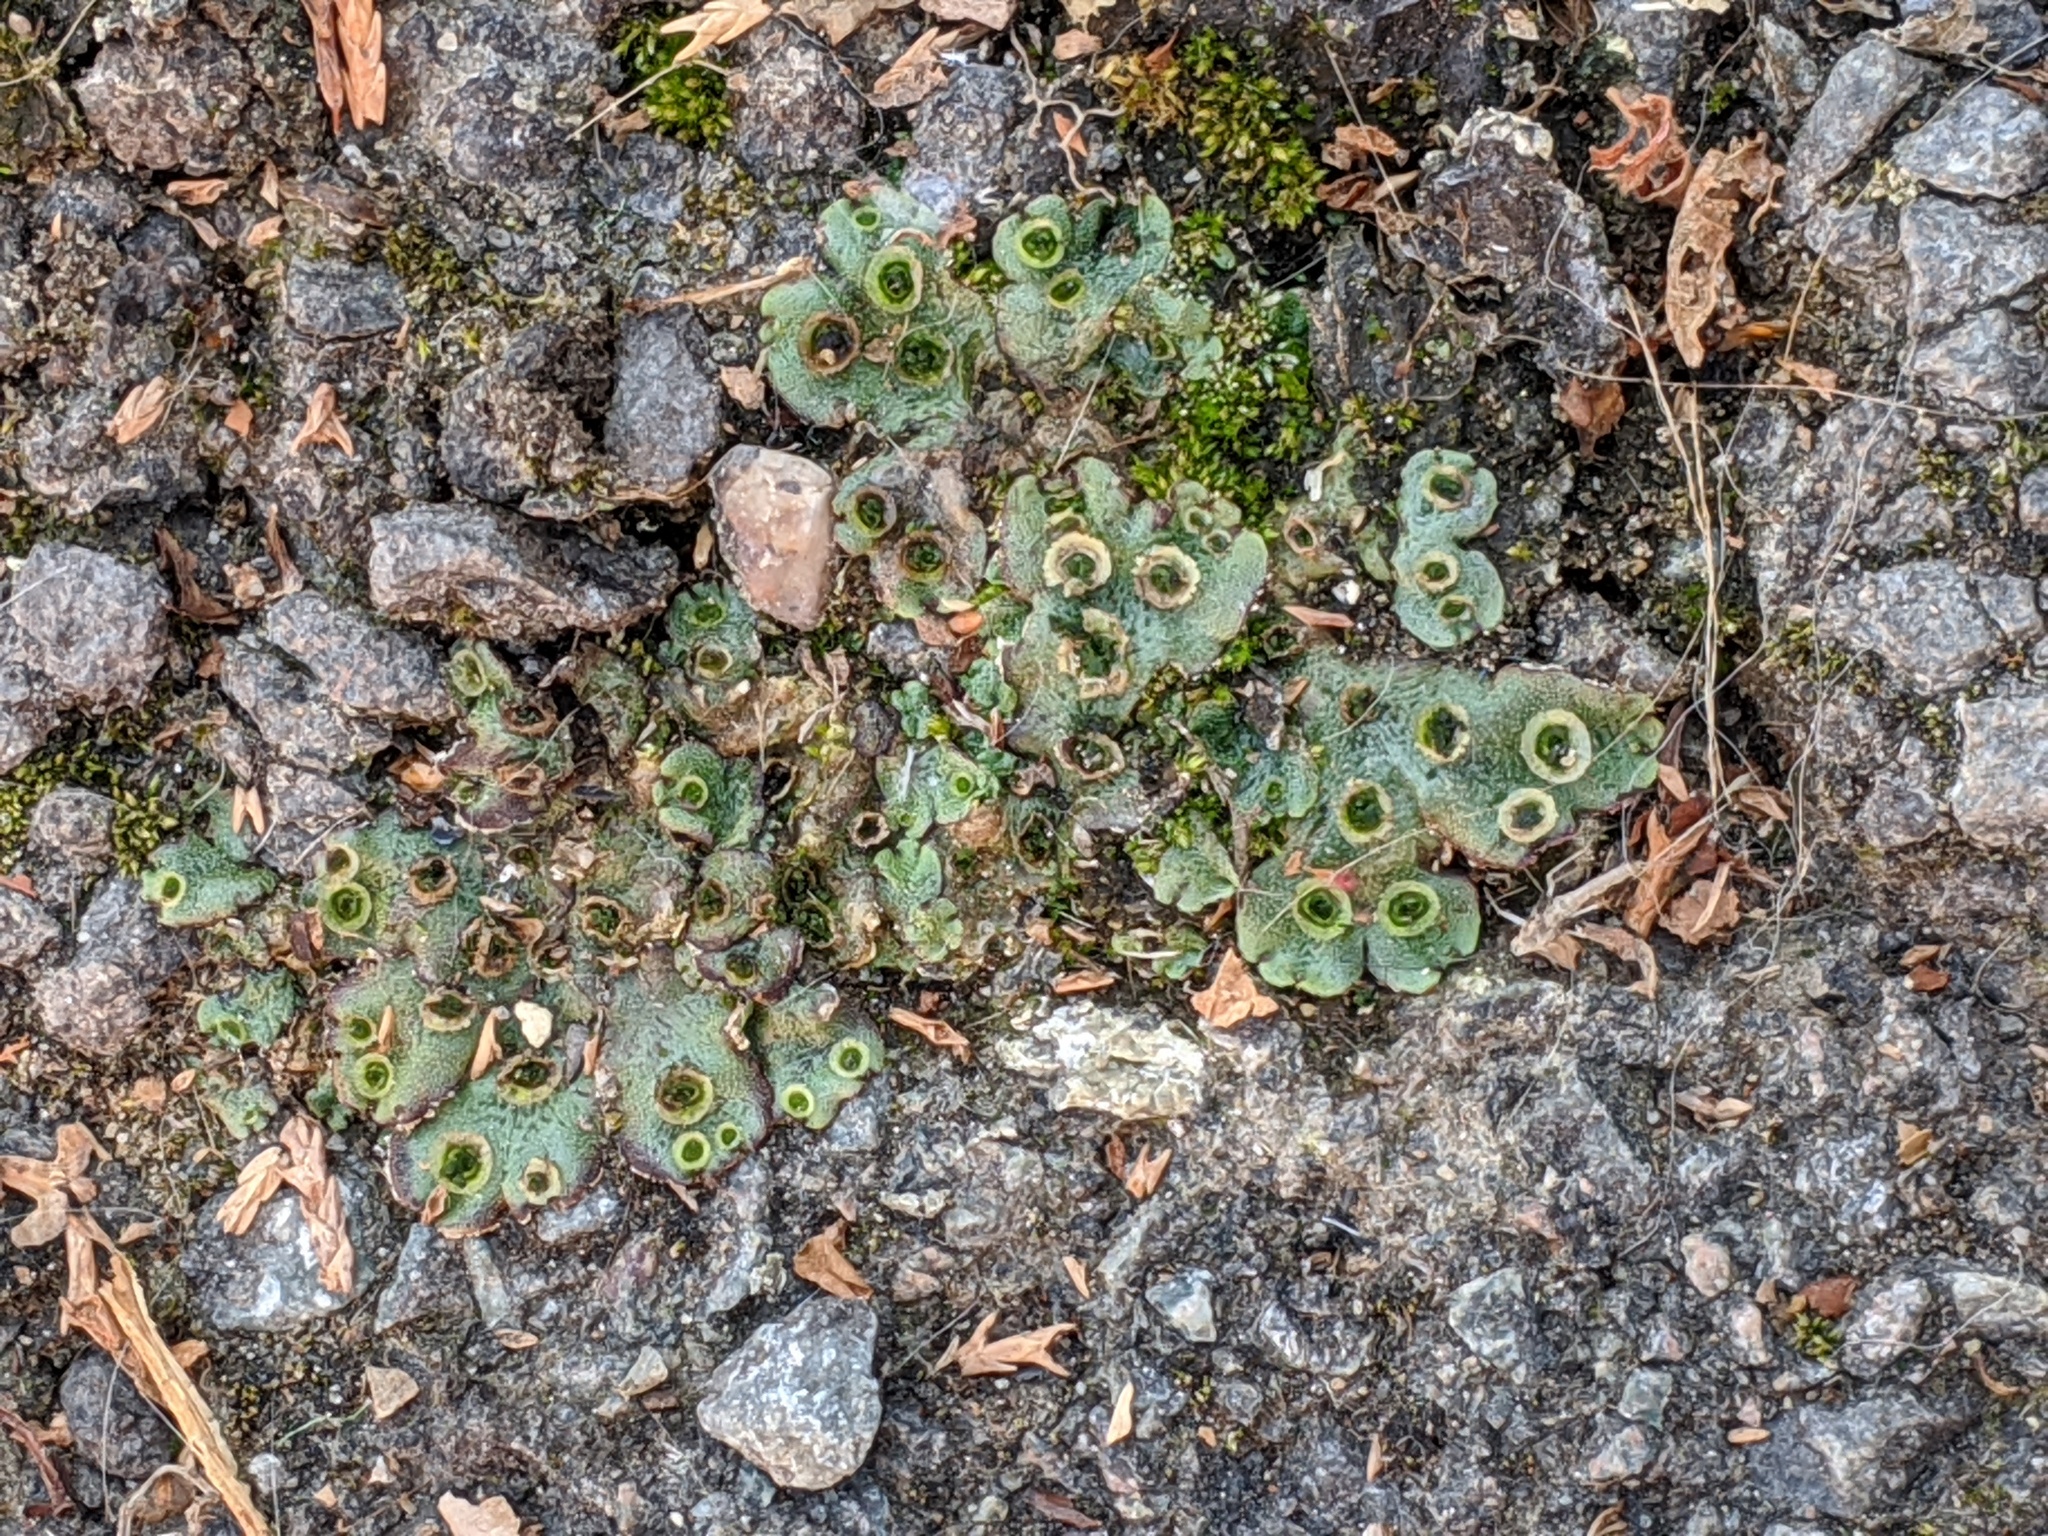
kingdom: Plantae
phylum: Marchantiophyta
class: Marchantiopsida
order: Marchantiales
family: Marchantiaceae
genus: Marchantia
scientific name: Marchantia polymorpha
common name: Common liverwort
